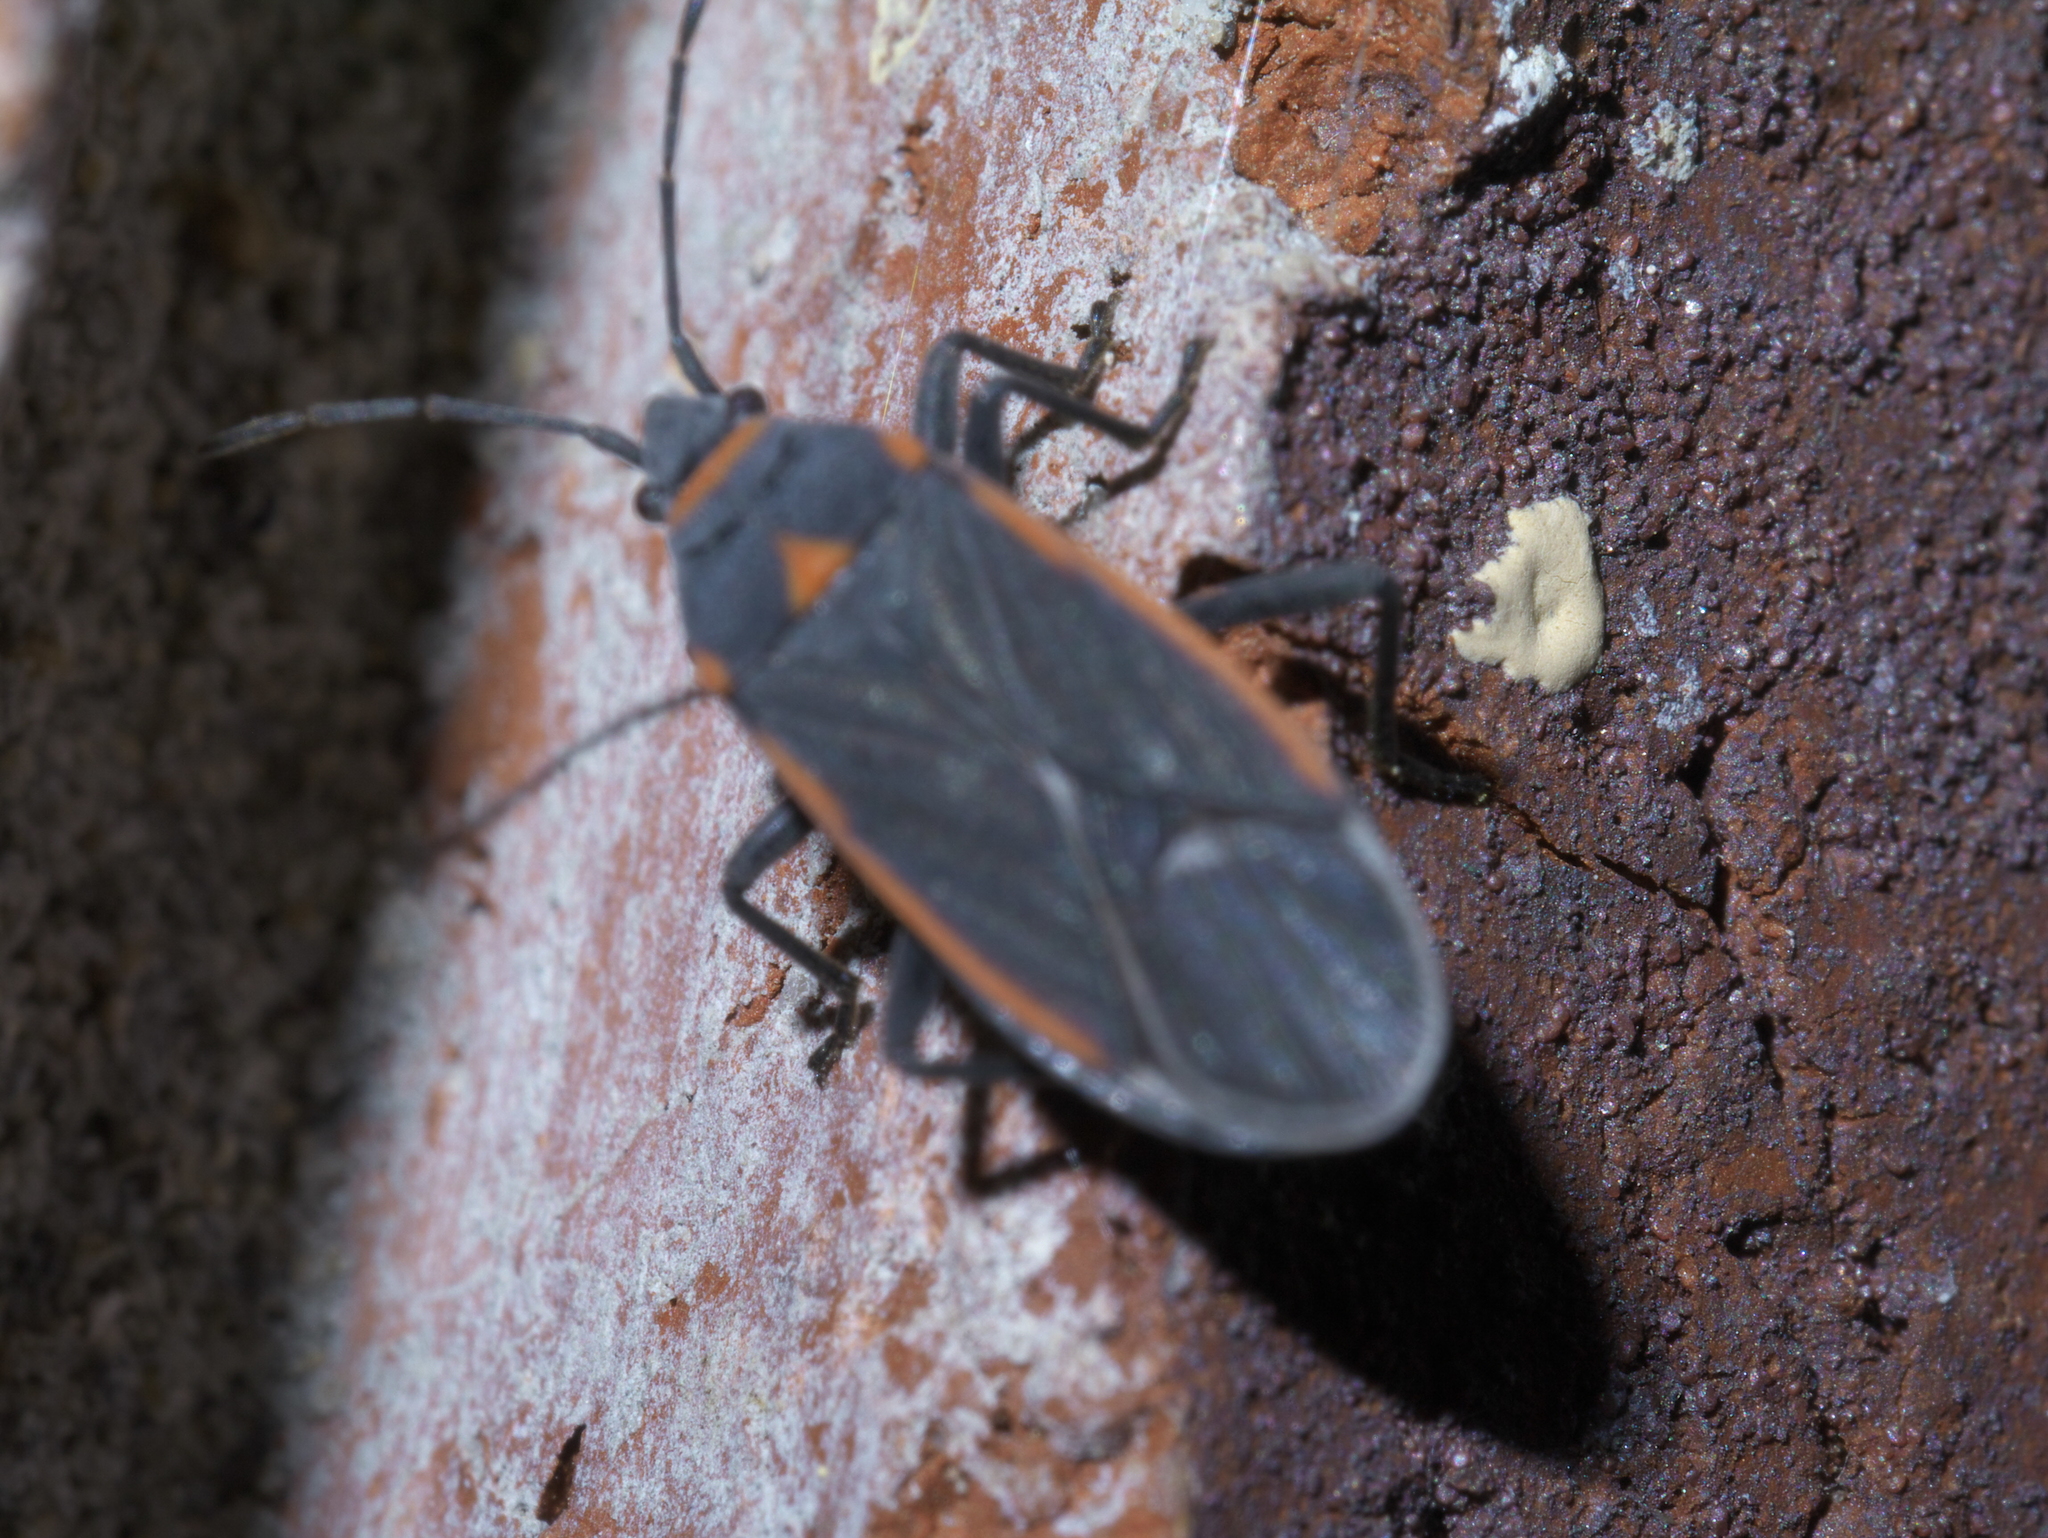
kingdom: Animalia
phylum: Arthropoda
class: Insecta
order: Hemiptera
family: Lygaeidae
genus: Melacoryphus
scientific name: Melacoryphus lateralis
